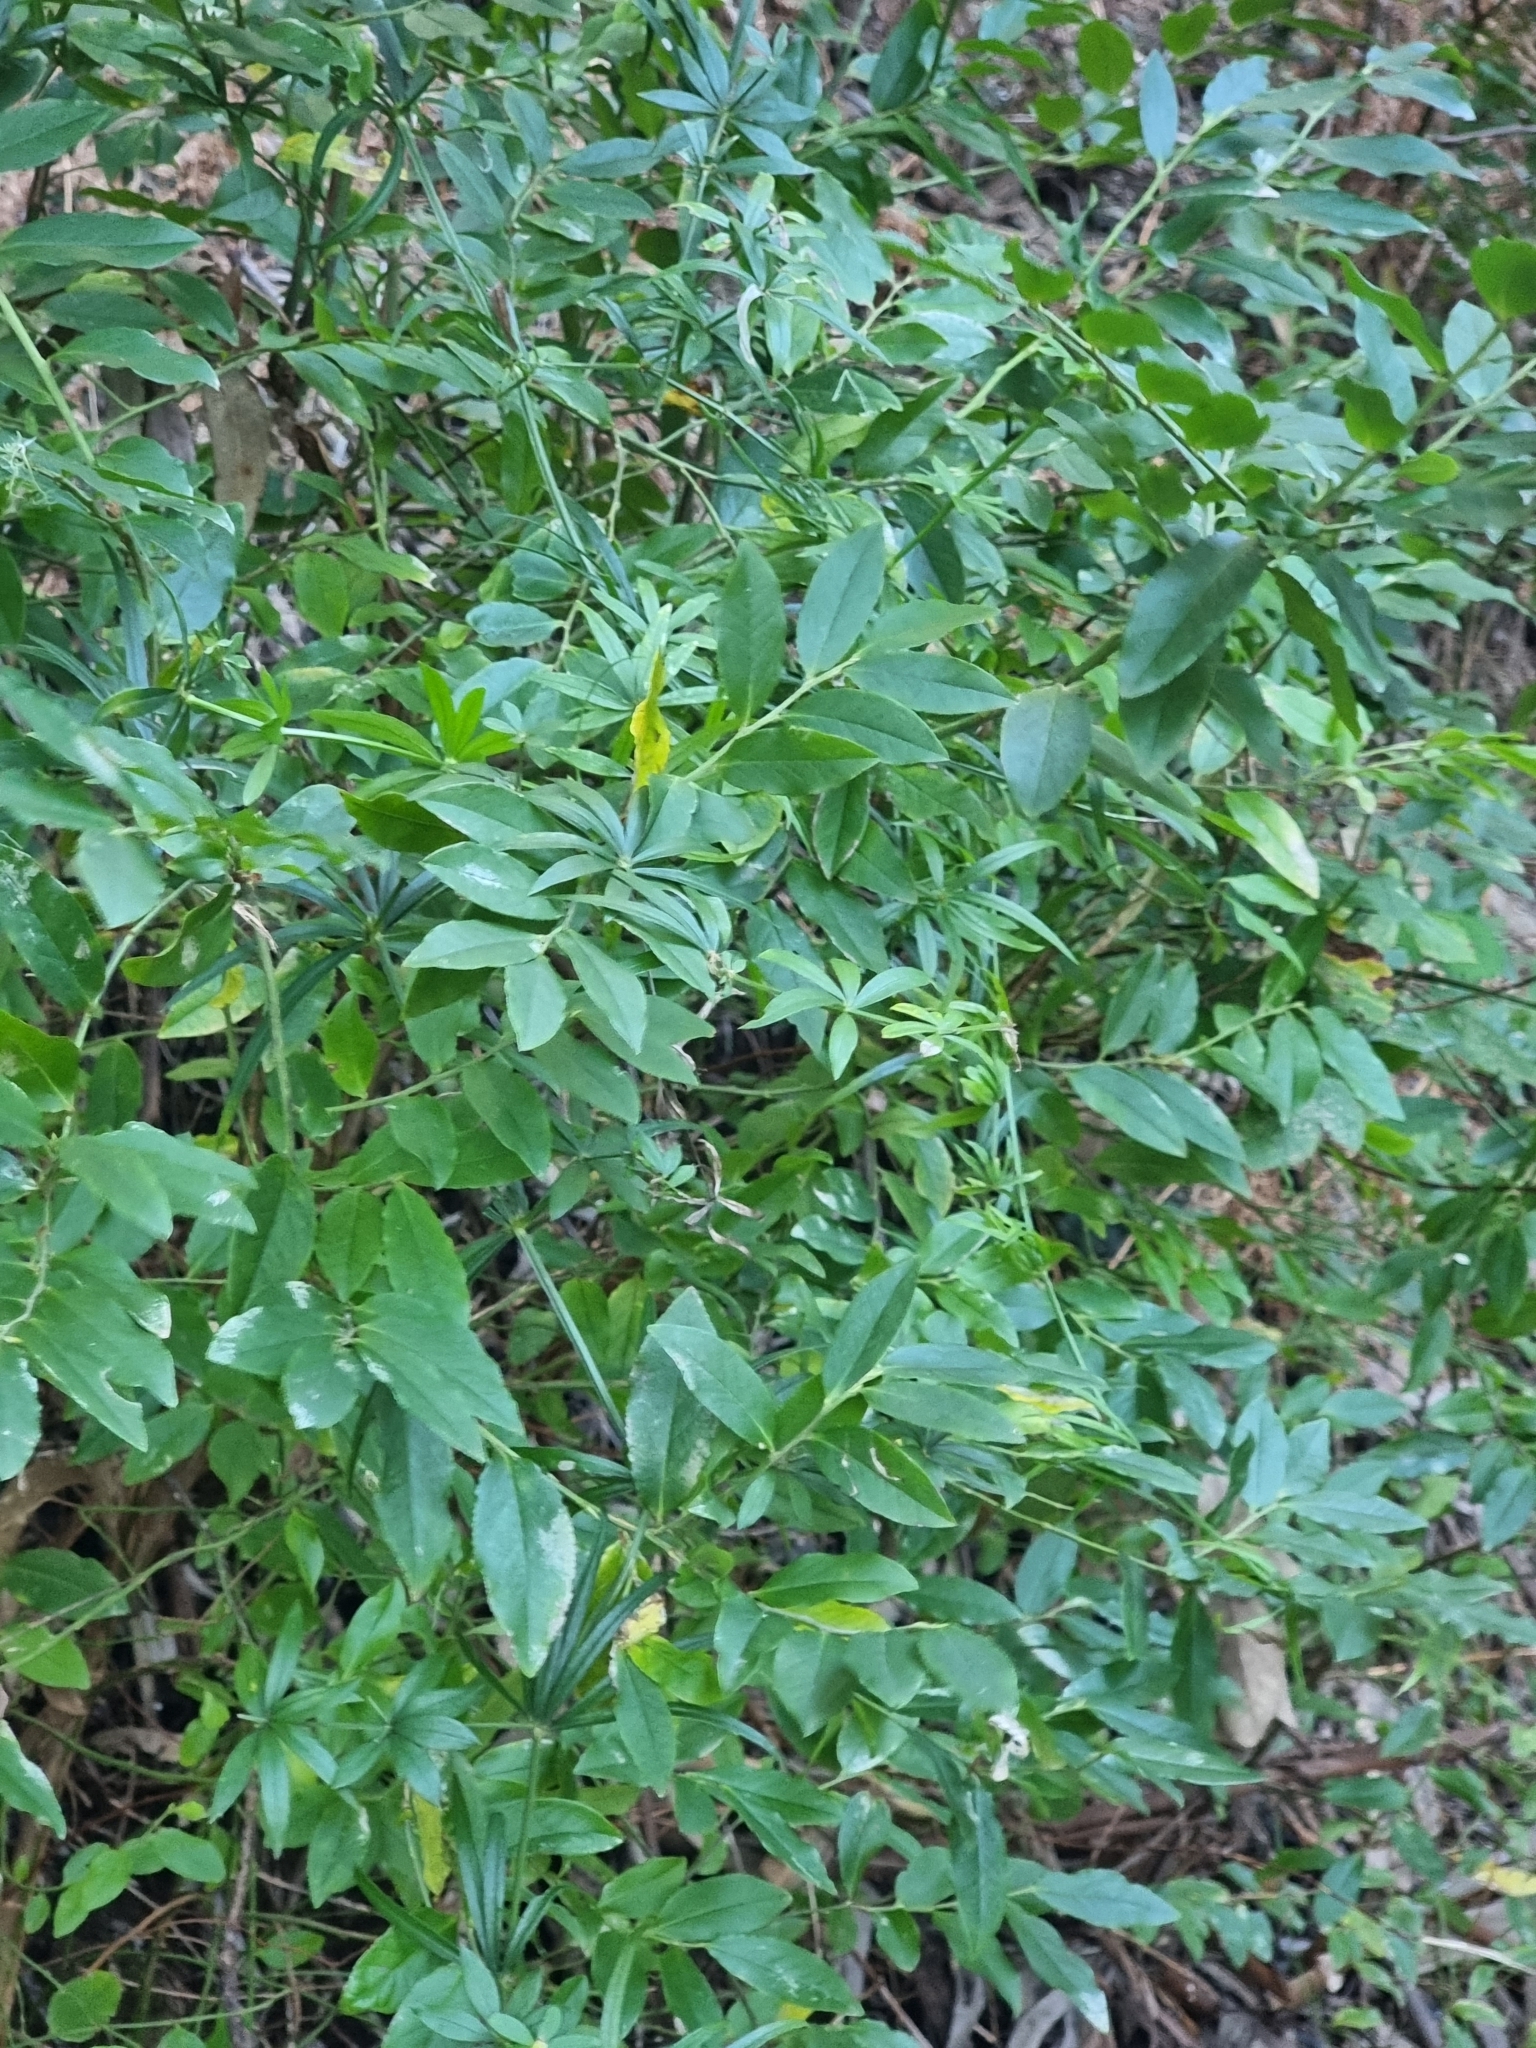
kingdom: Plantae
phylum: Tracheophyta
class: Magnoliopsida
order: Ericales
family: Ericaceae
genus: Vaccinium
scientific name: Vaccinium padifolium
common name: Madeiran blueberry
